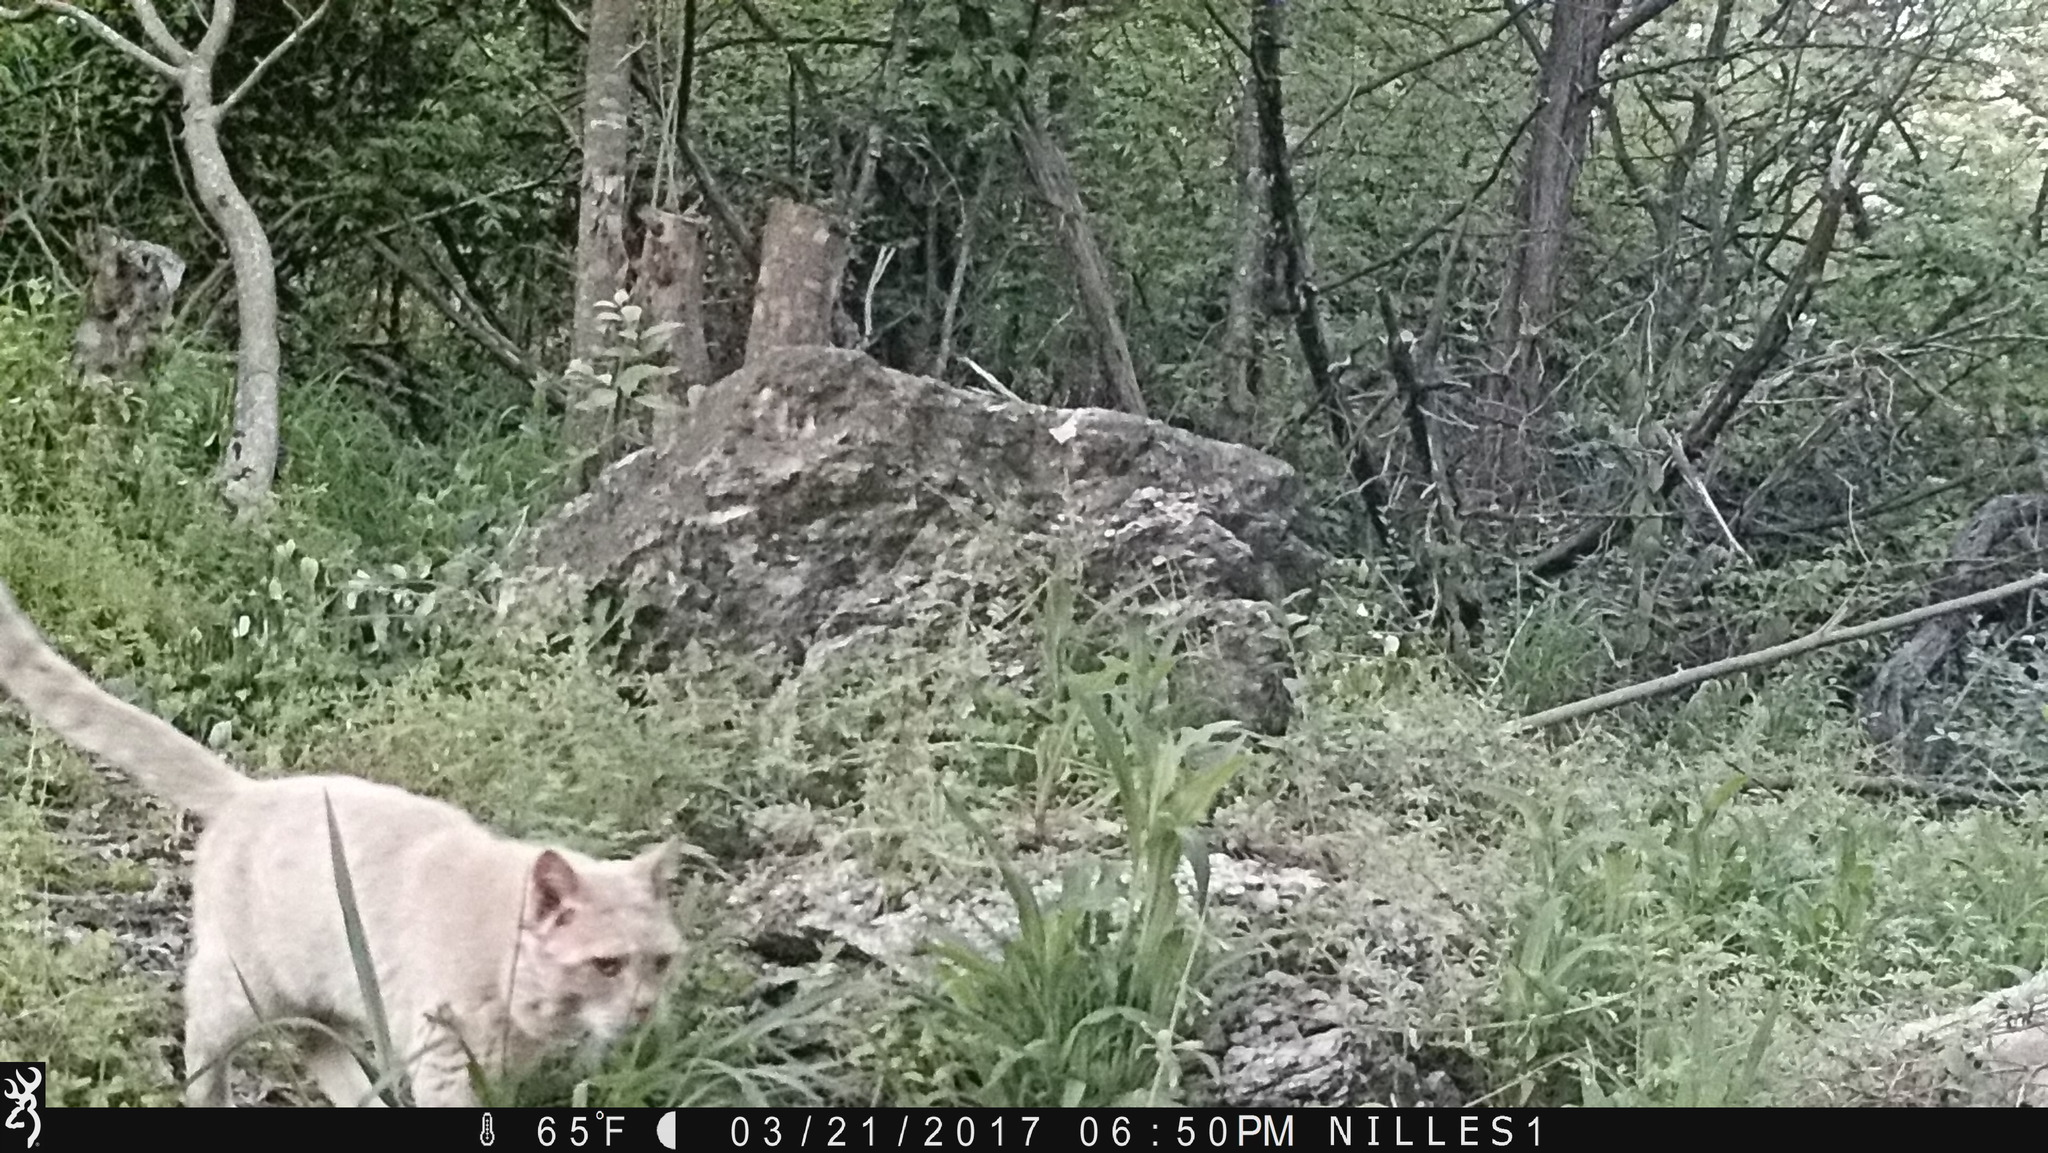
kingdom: Animalia
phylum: Chordata
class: Mammalia
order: Carnivora
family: Felidae
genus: Felis
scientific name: Felis catus
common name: Domestic cat
